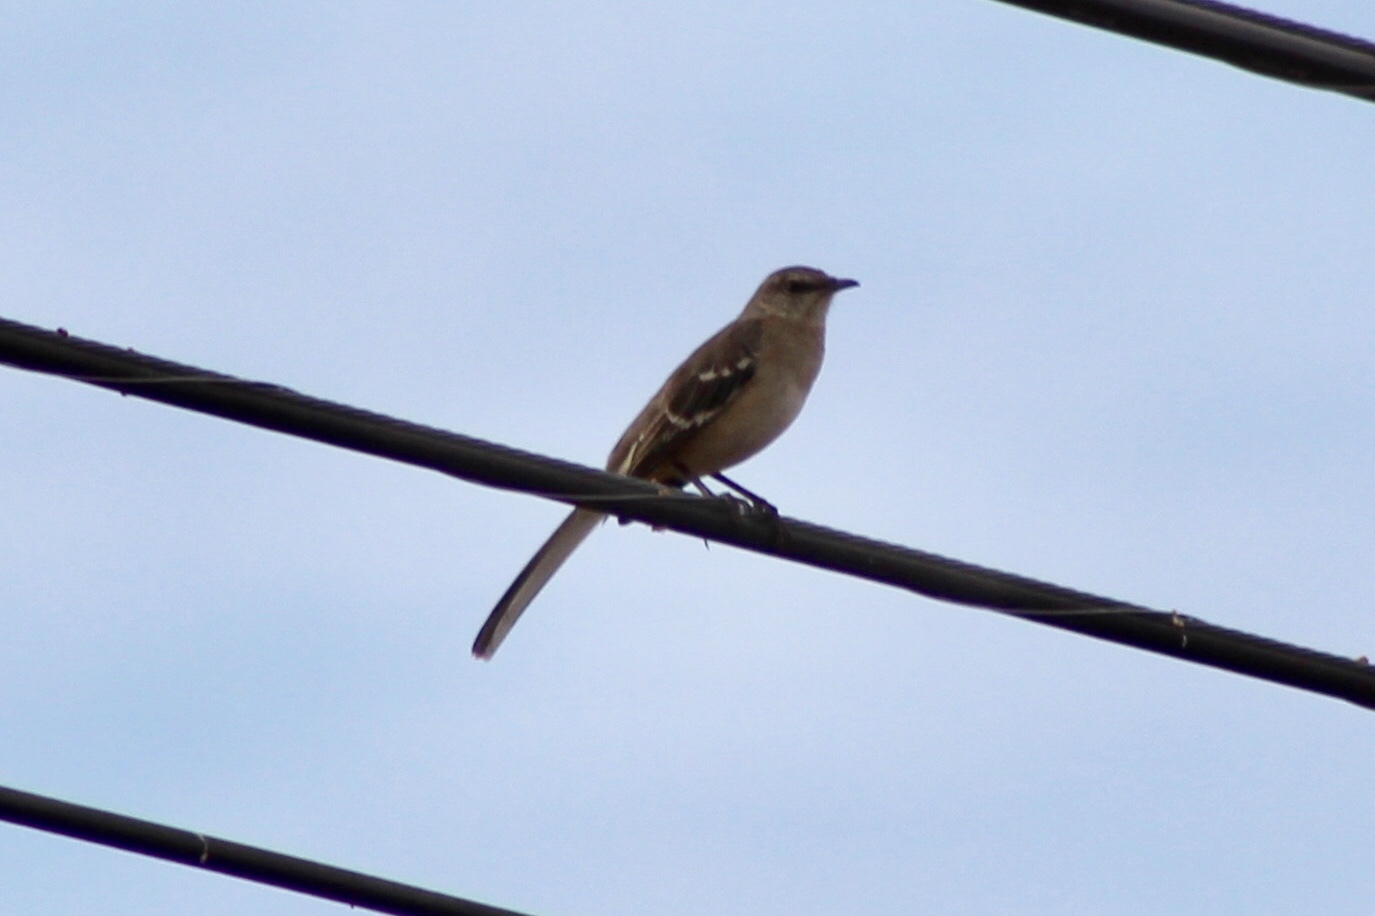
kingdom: Animalia
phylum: Chordata
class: Aves
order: Passeriformes
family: Mimidae
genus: Mimus
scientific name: Mimus polyglottos
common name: Northern mockingbird
